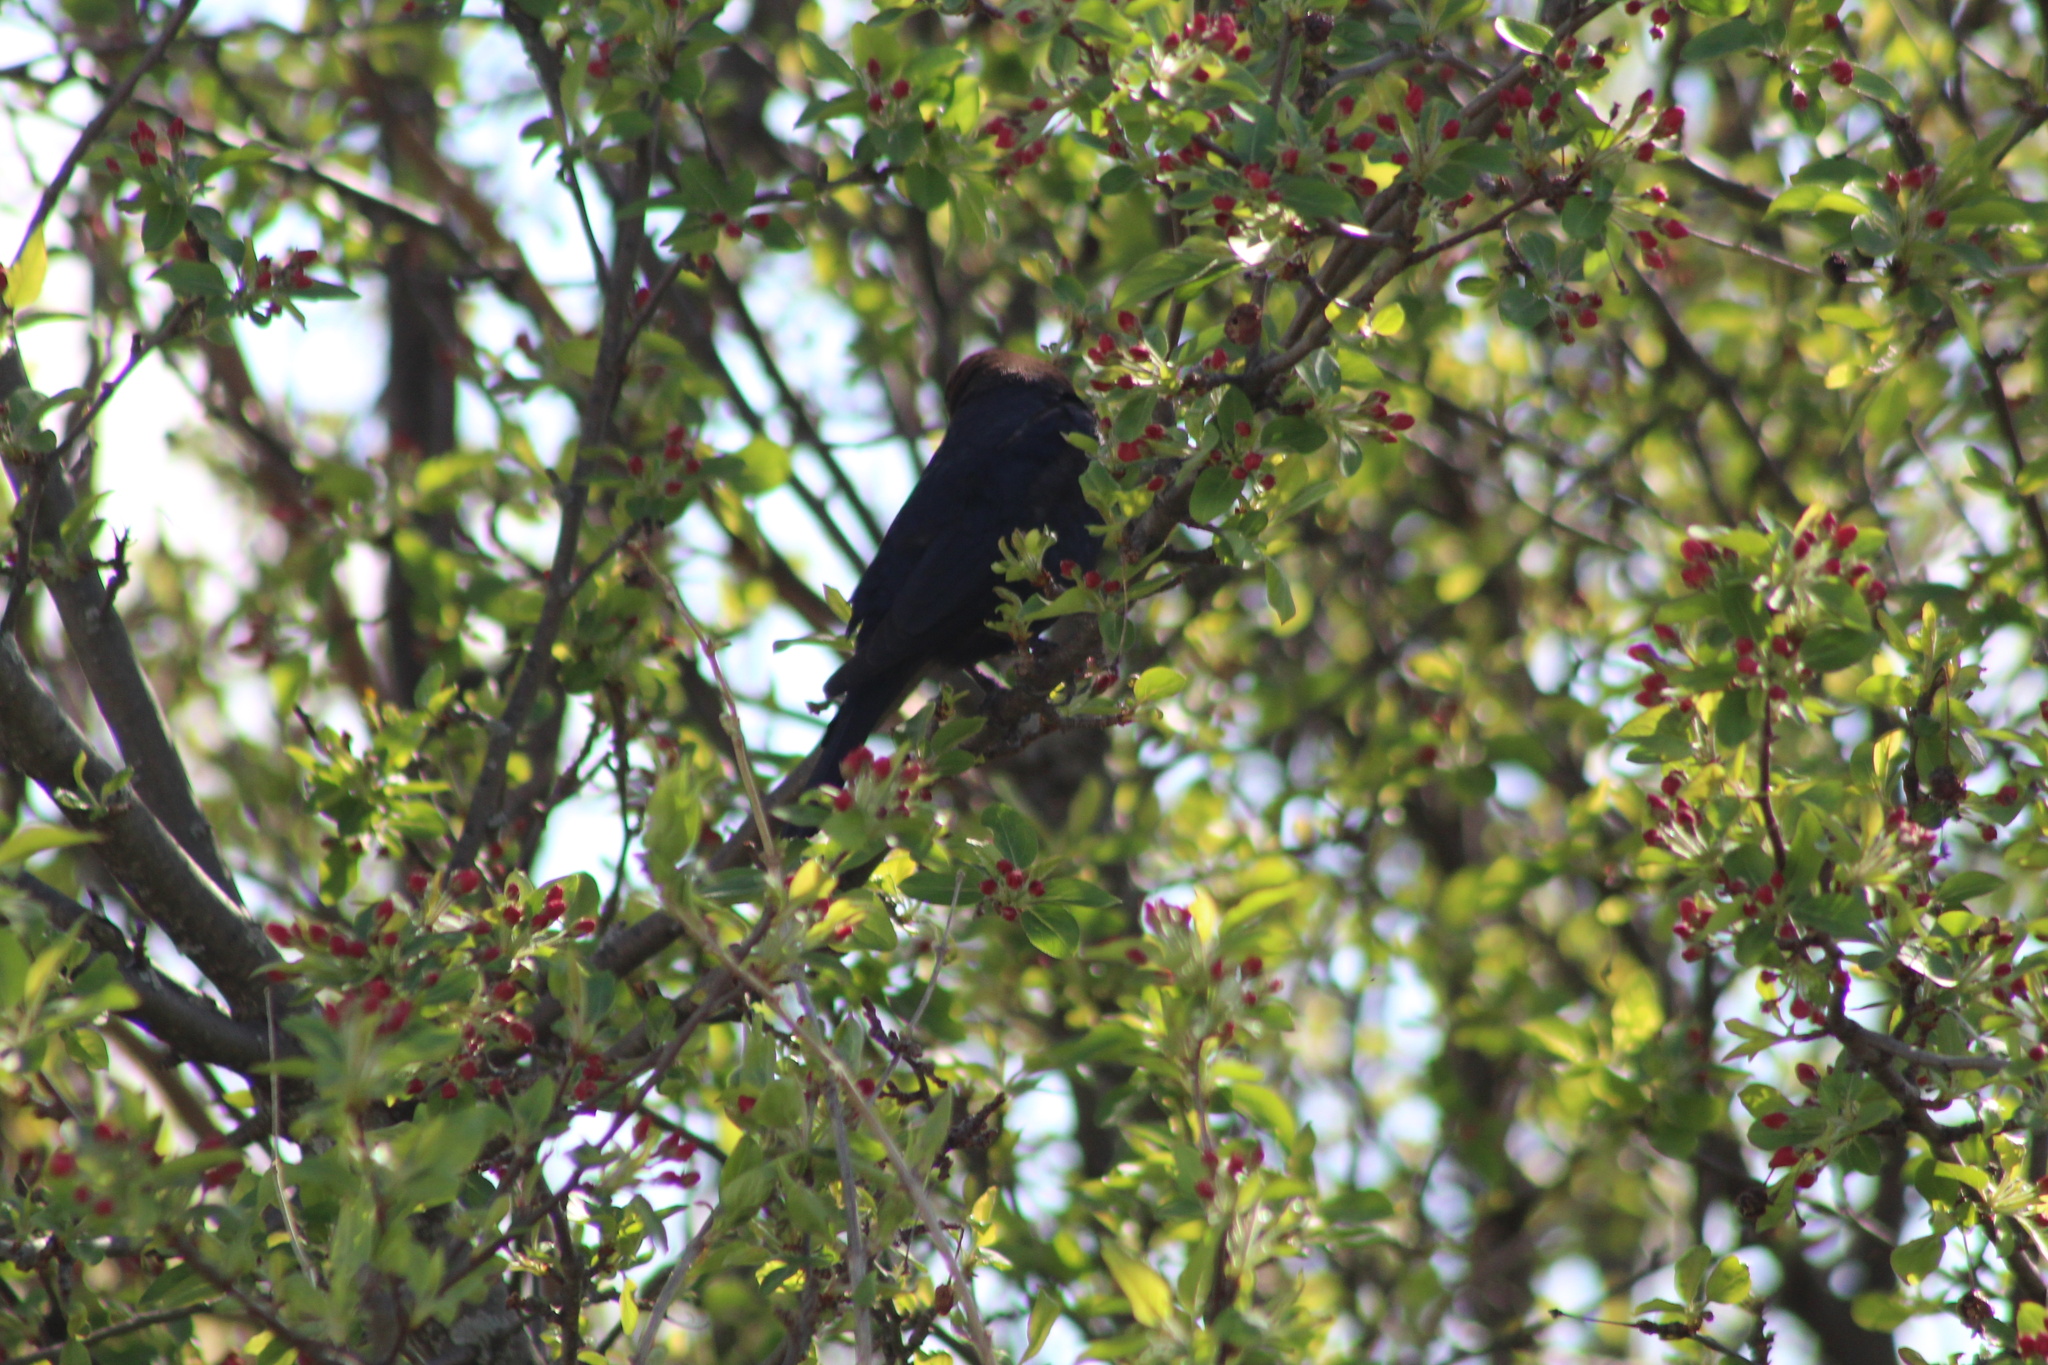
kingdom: Animalia
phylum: Chordata
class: Aves
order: Passeriformes
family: Icteridae
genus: Molothrus
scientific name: Molothrus ater
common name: Brown-headed cowbird
